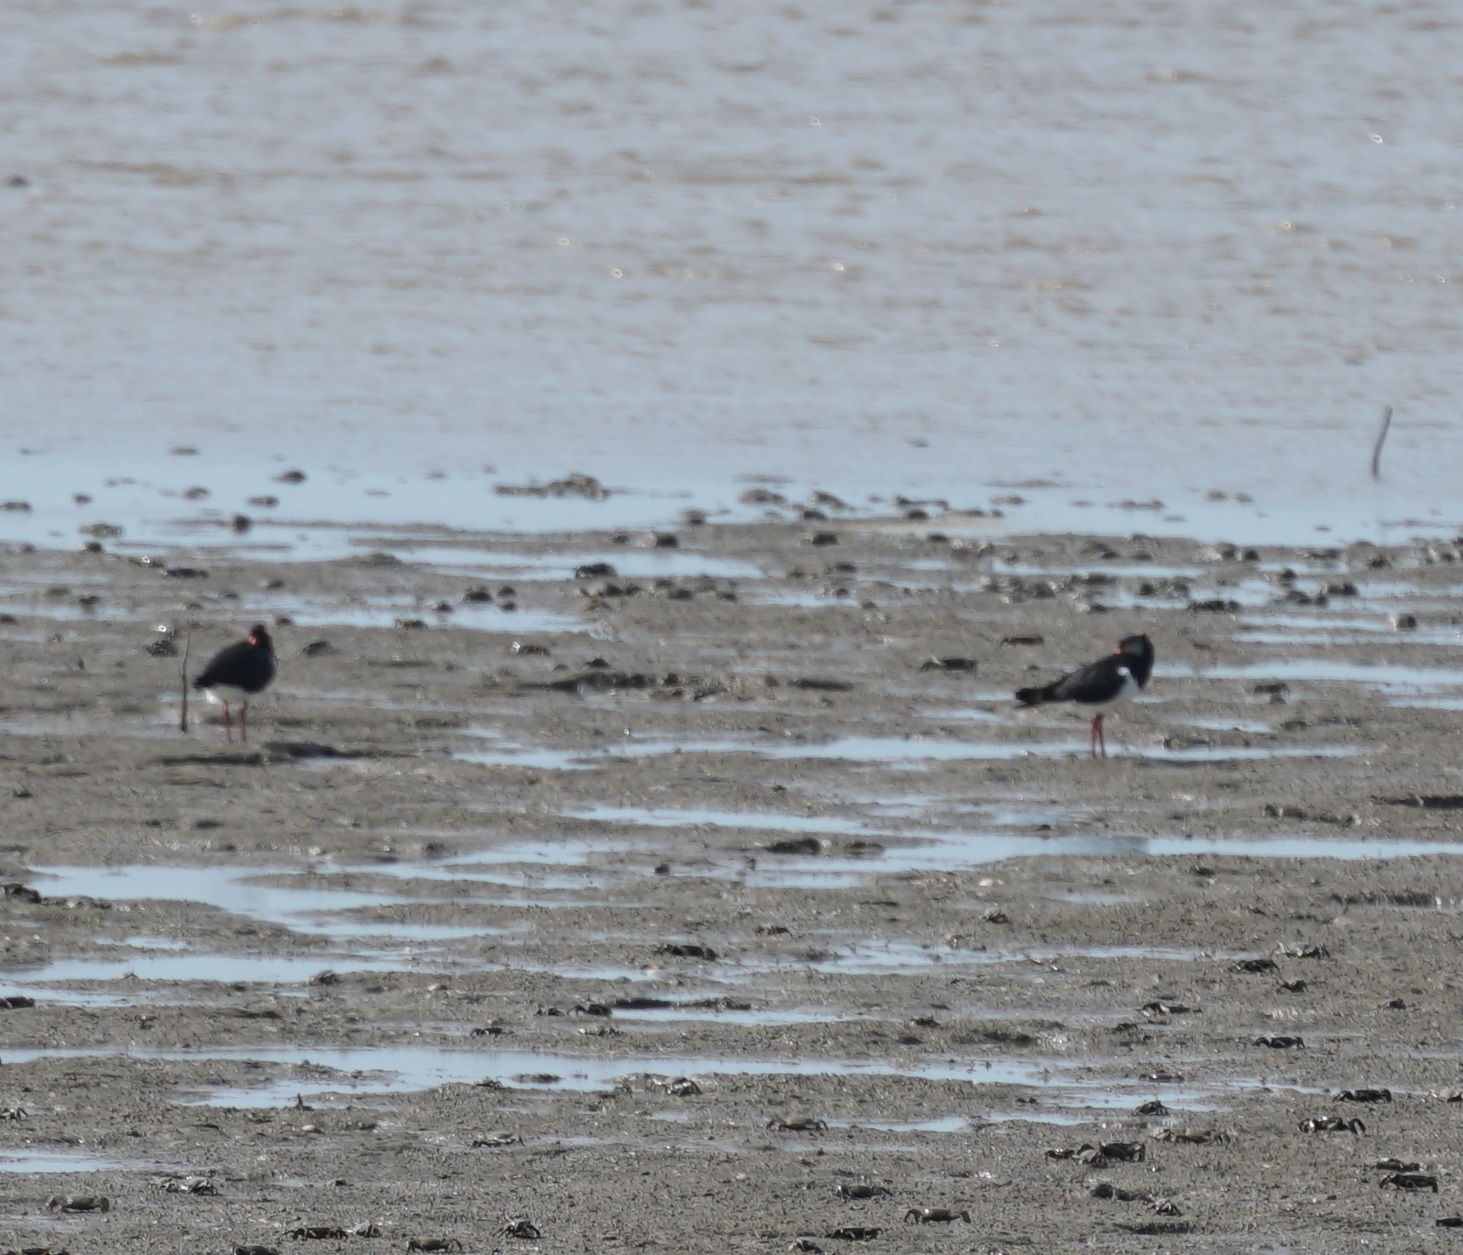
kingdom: Animalia
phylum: Chordata
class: Aves
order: Charadriiformes
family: Haematopodidae
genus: Haematopus
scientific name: Haematopus longirostris
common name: Pied oystercatcher
